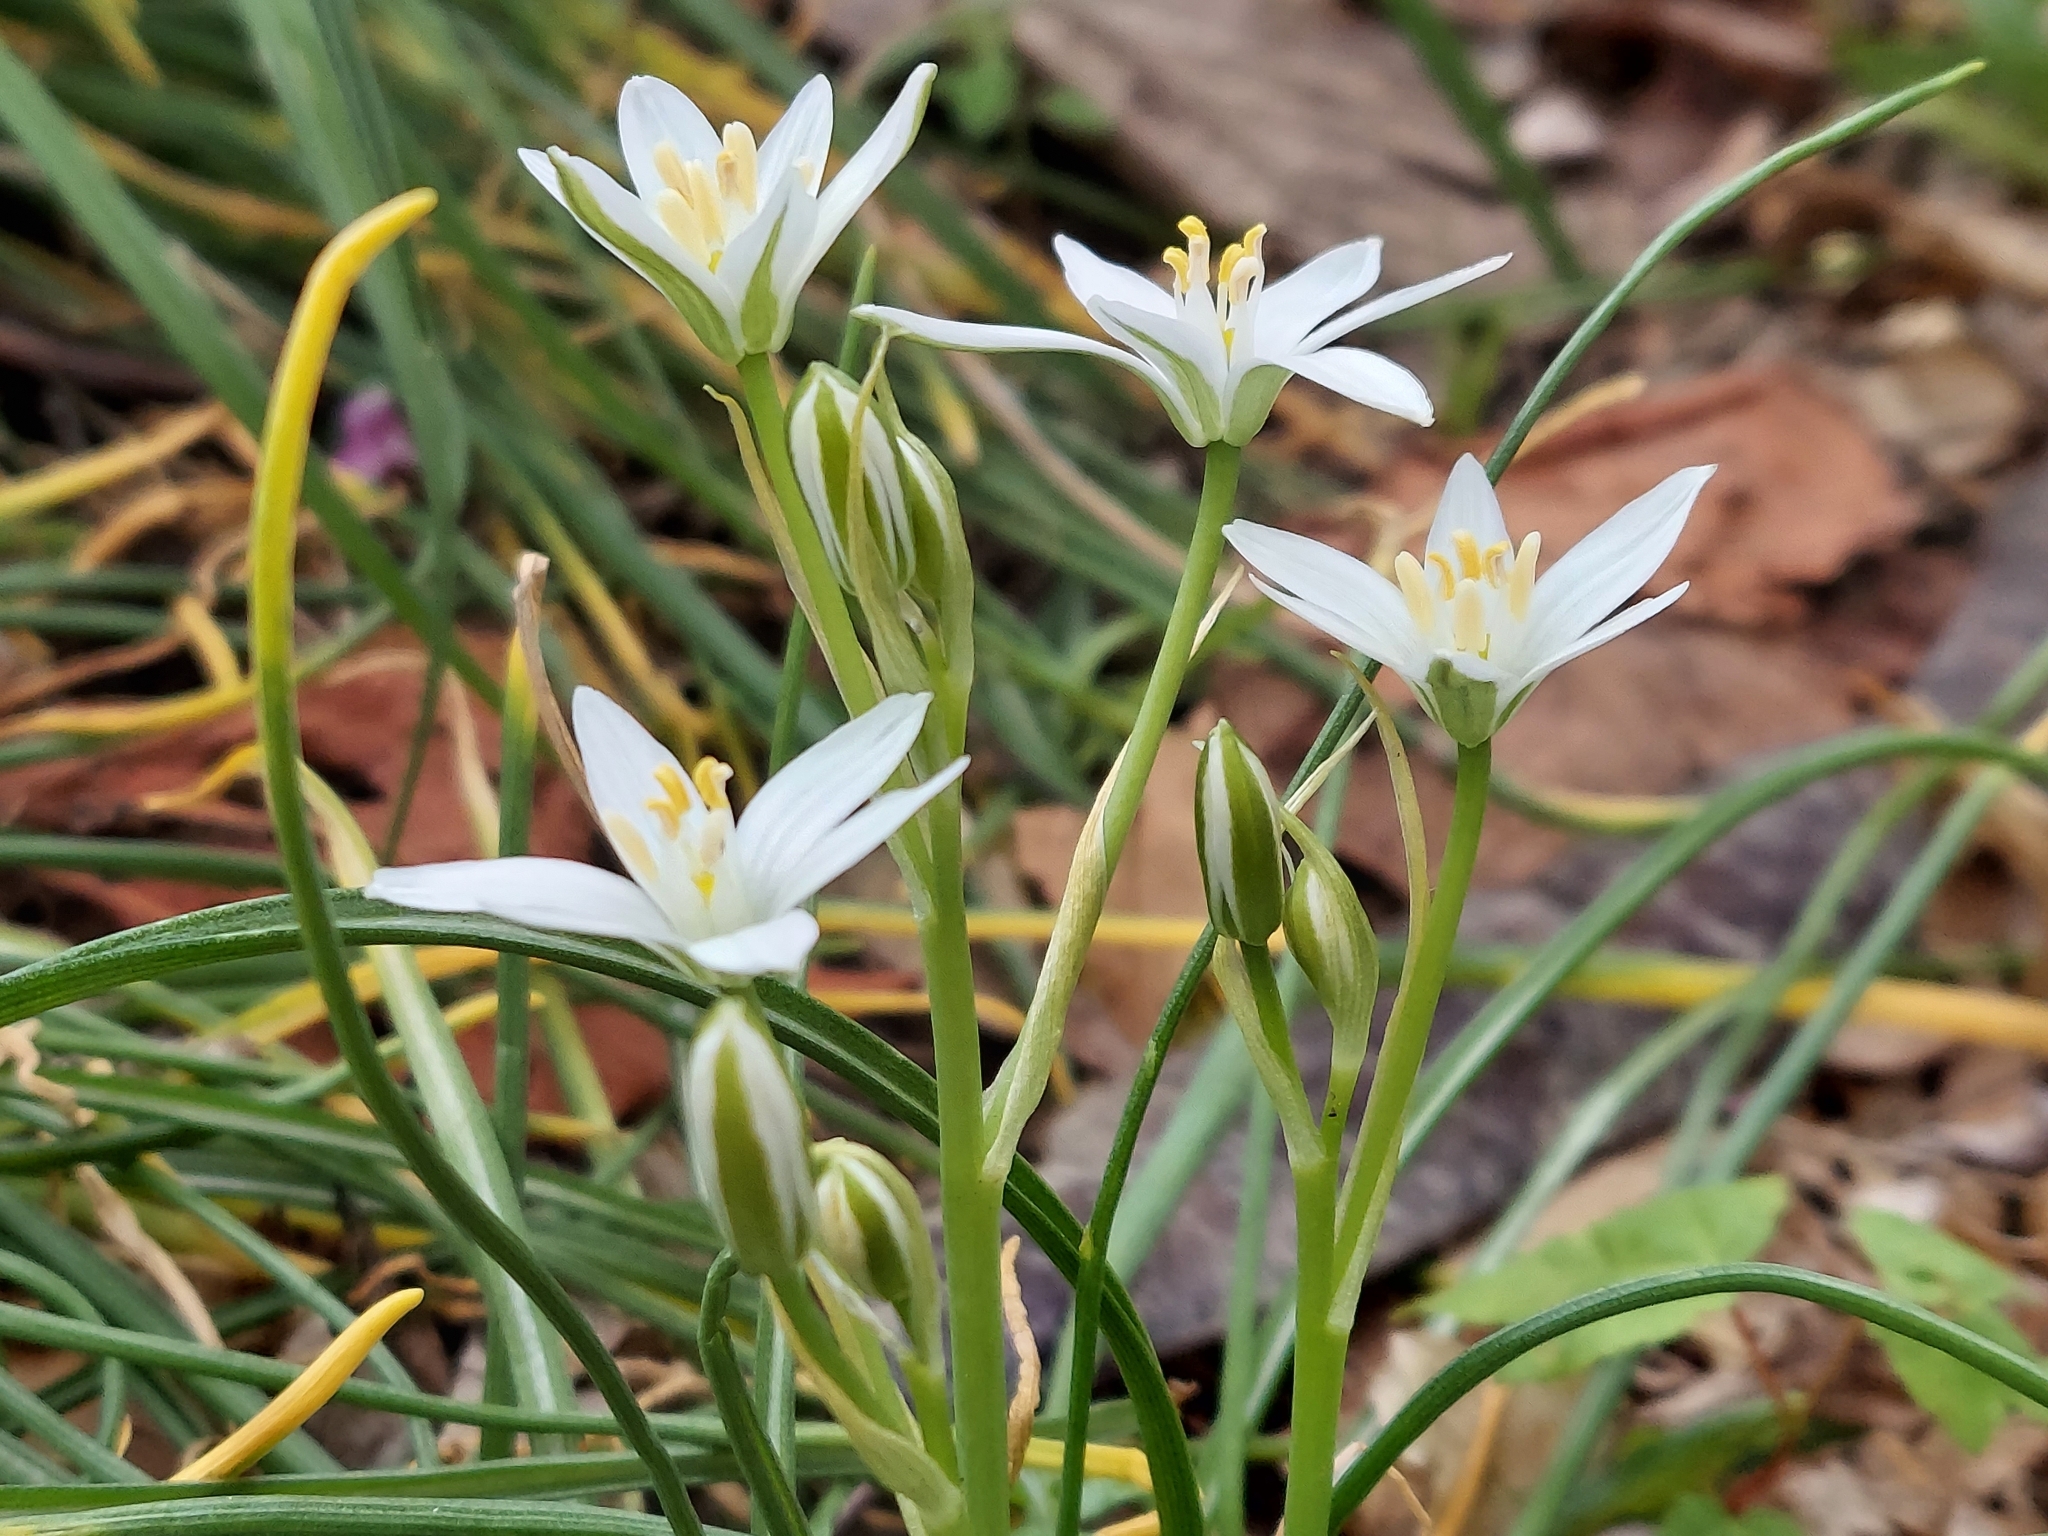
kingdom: Plantae
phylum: Tracheophyta
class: Liliopsida
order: Asparagales
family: Asparagaceae
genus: Ornithogalum
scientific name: Ornithogalum umbellatum
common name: Garden star-of-bethlehem
